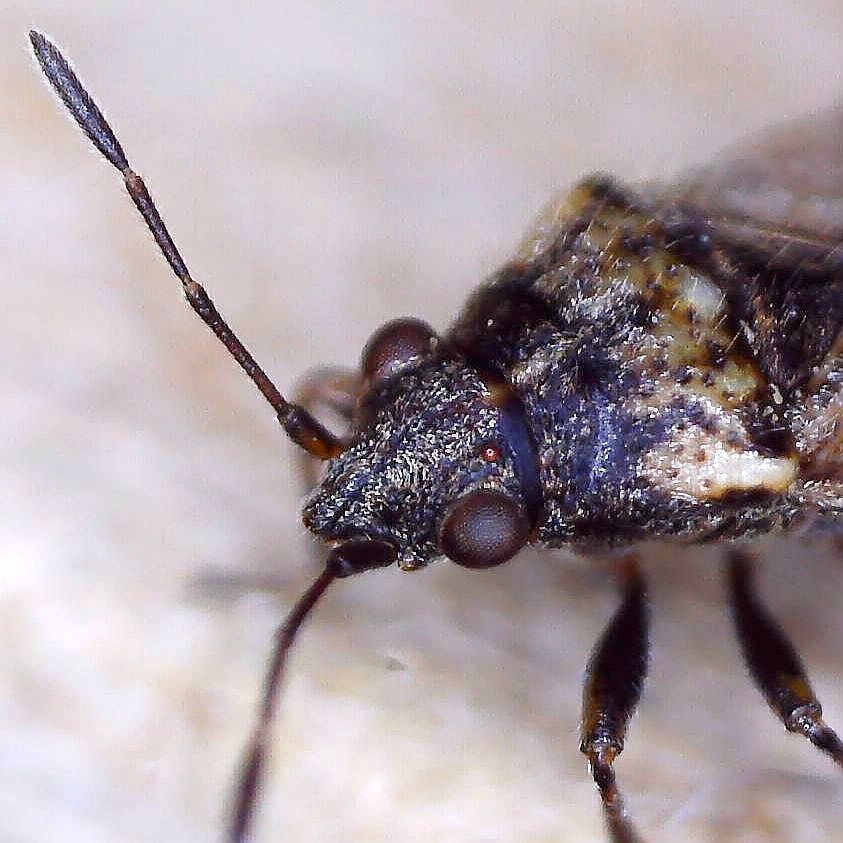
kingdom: Animalia
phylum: Arthropoda
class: Insecta
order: Hemiptera
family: Lygaeidae
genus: Nysius
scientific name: Nysius huttoni
